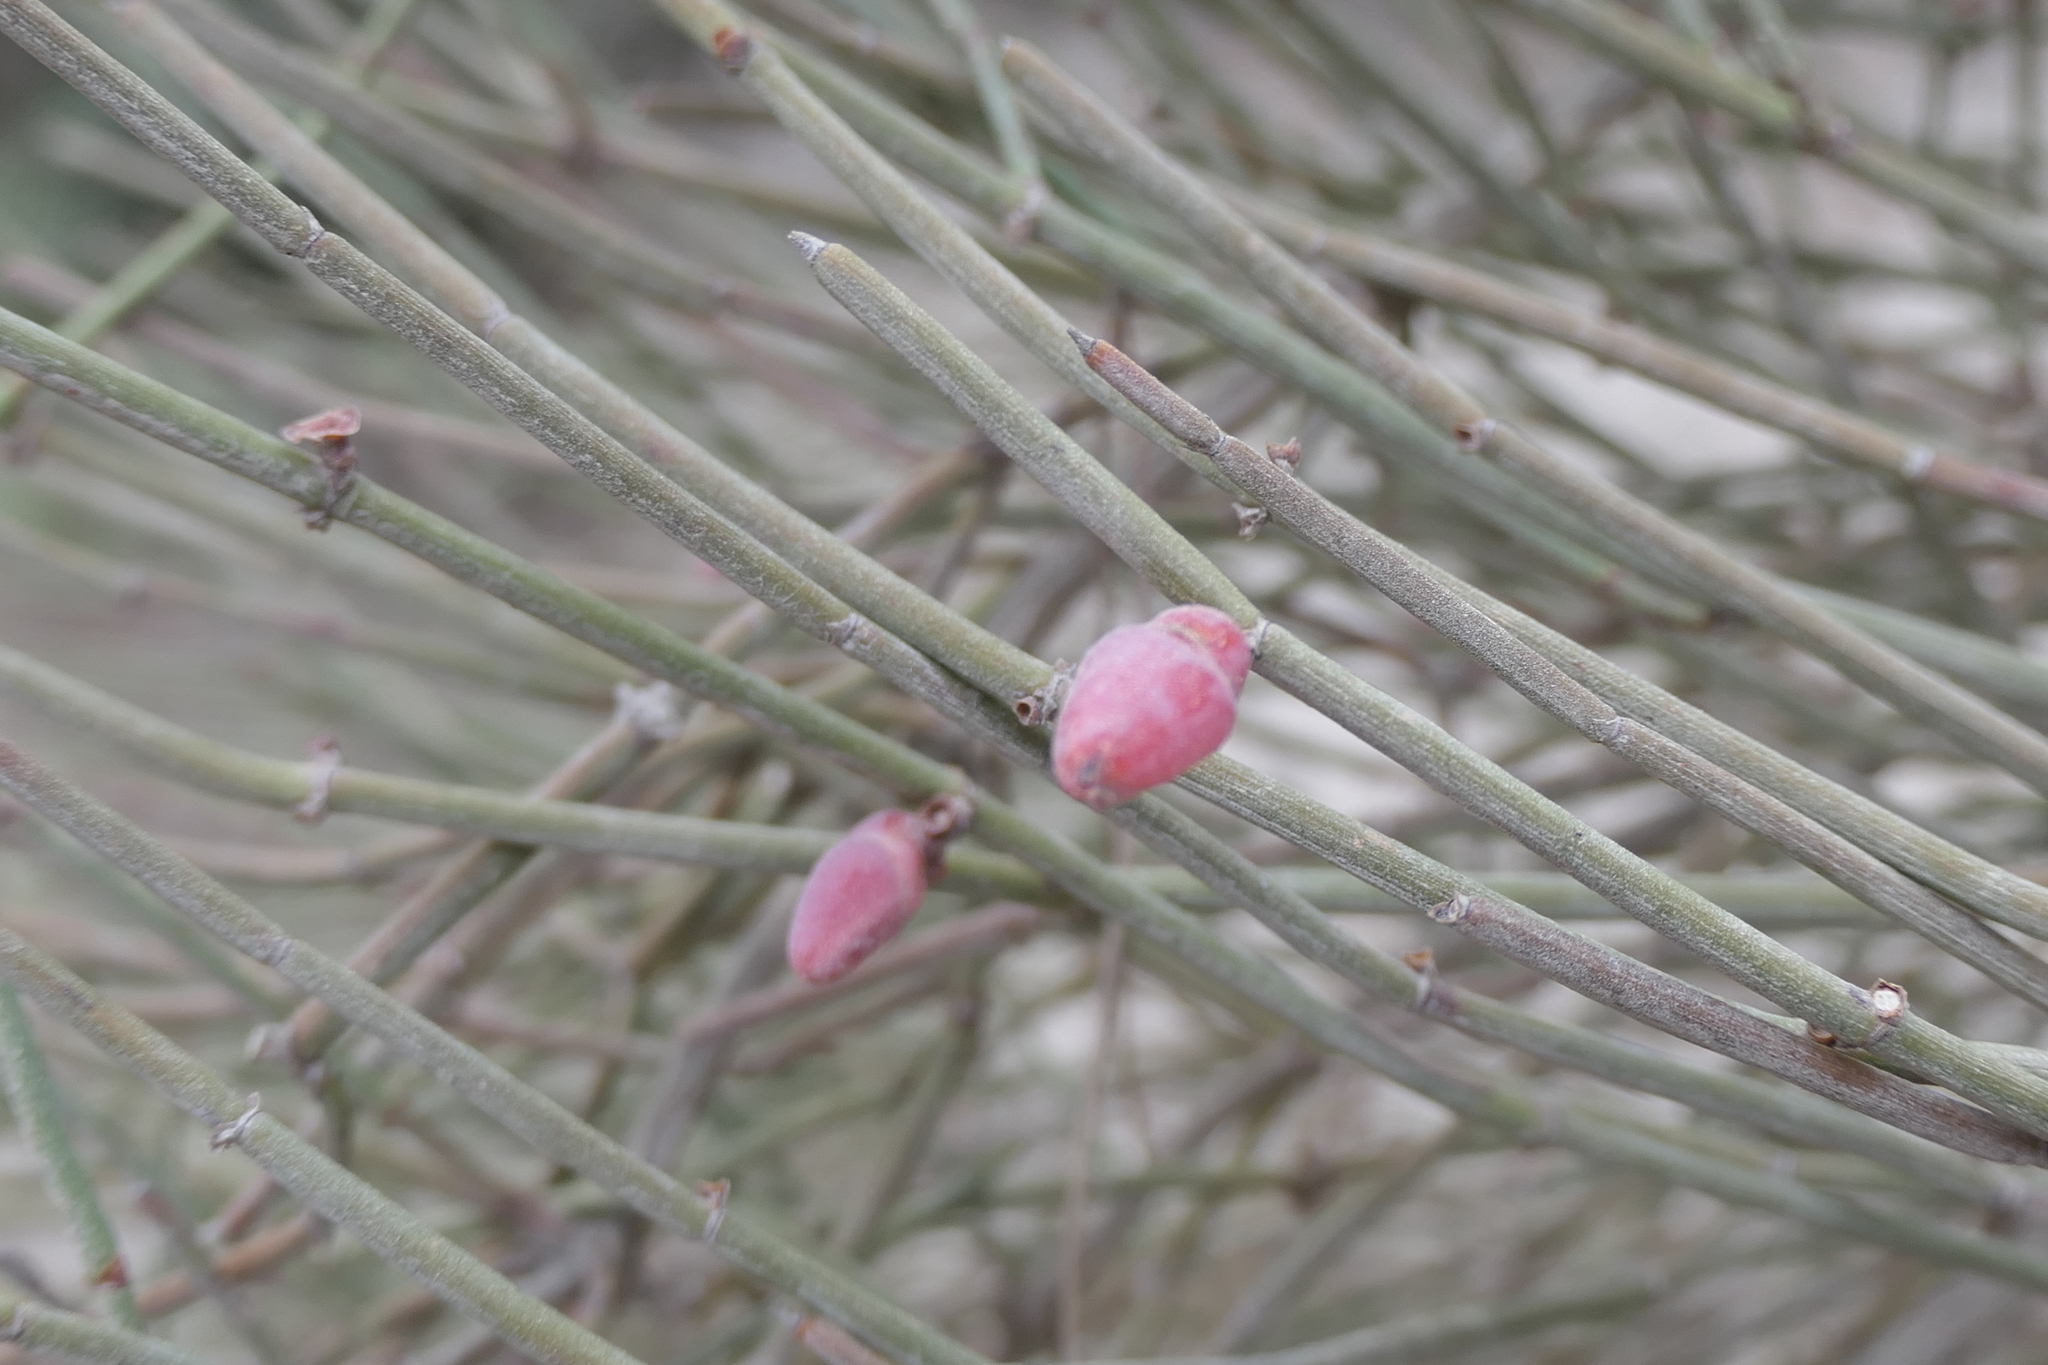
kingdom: Plantae
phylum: Tracheophyta
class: Gnetopsida
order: Ephedrales
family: Ephedraceae
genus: Ephedra
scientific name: Ephedra fragilis
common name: Joint pine
